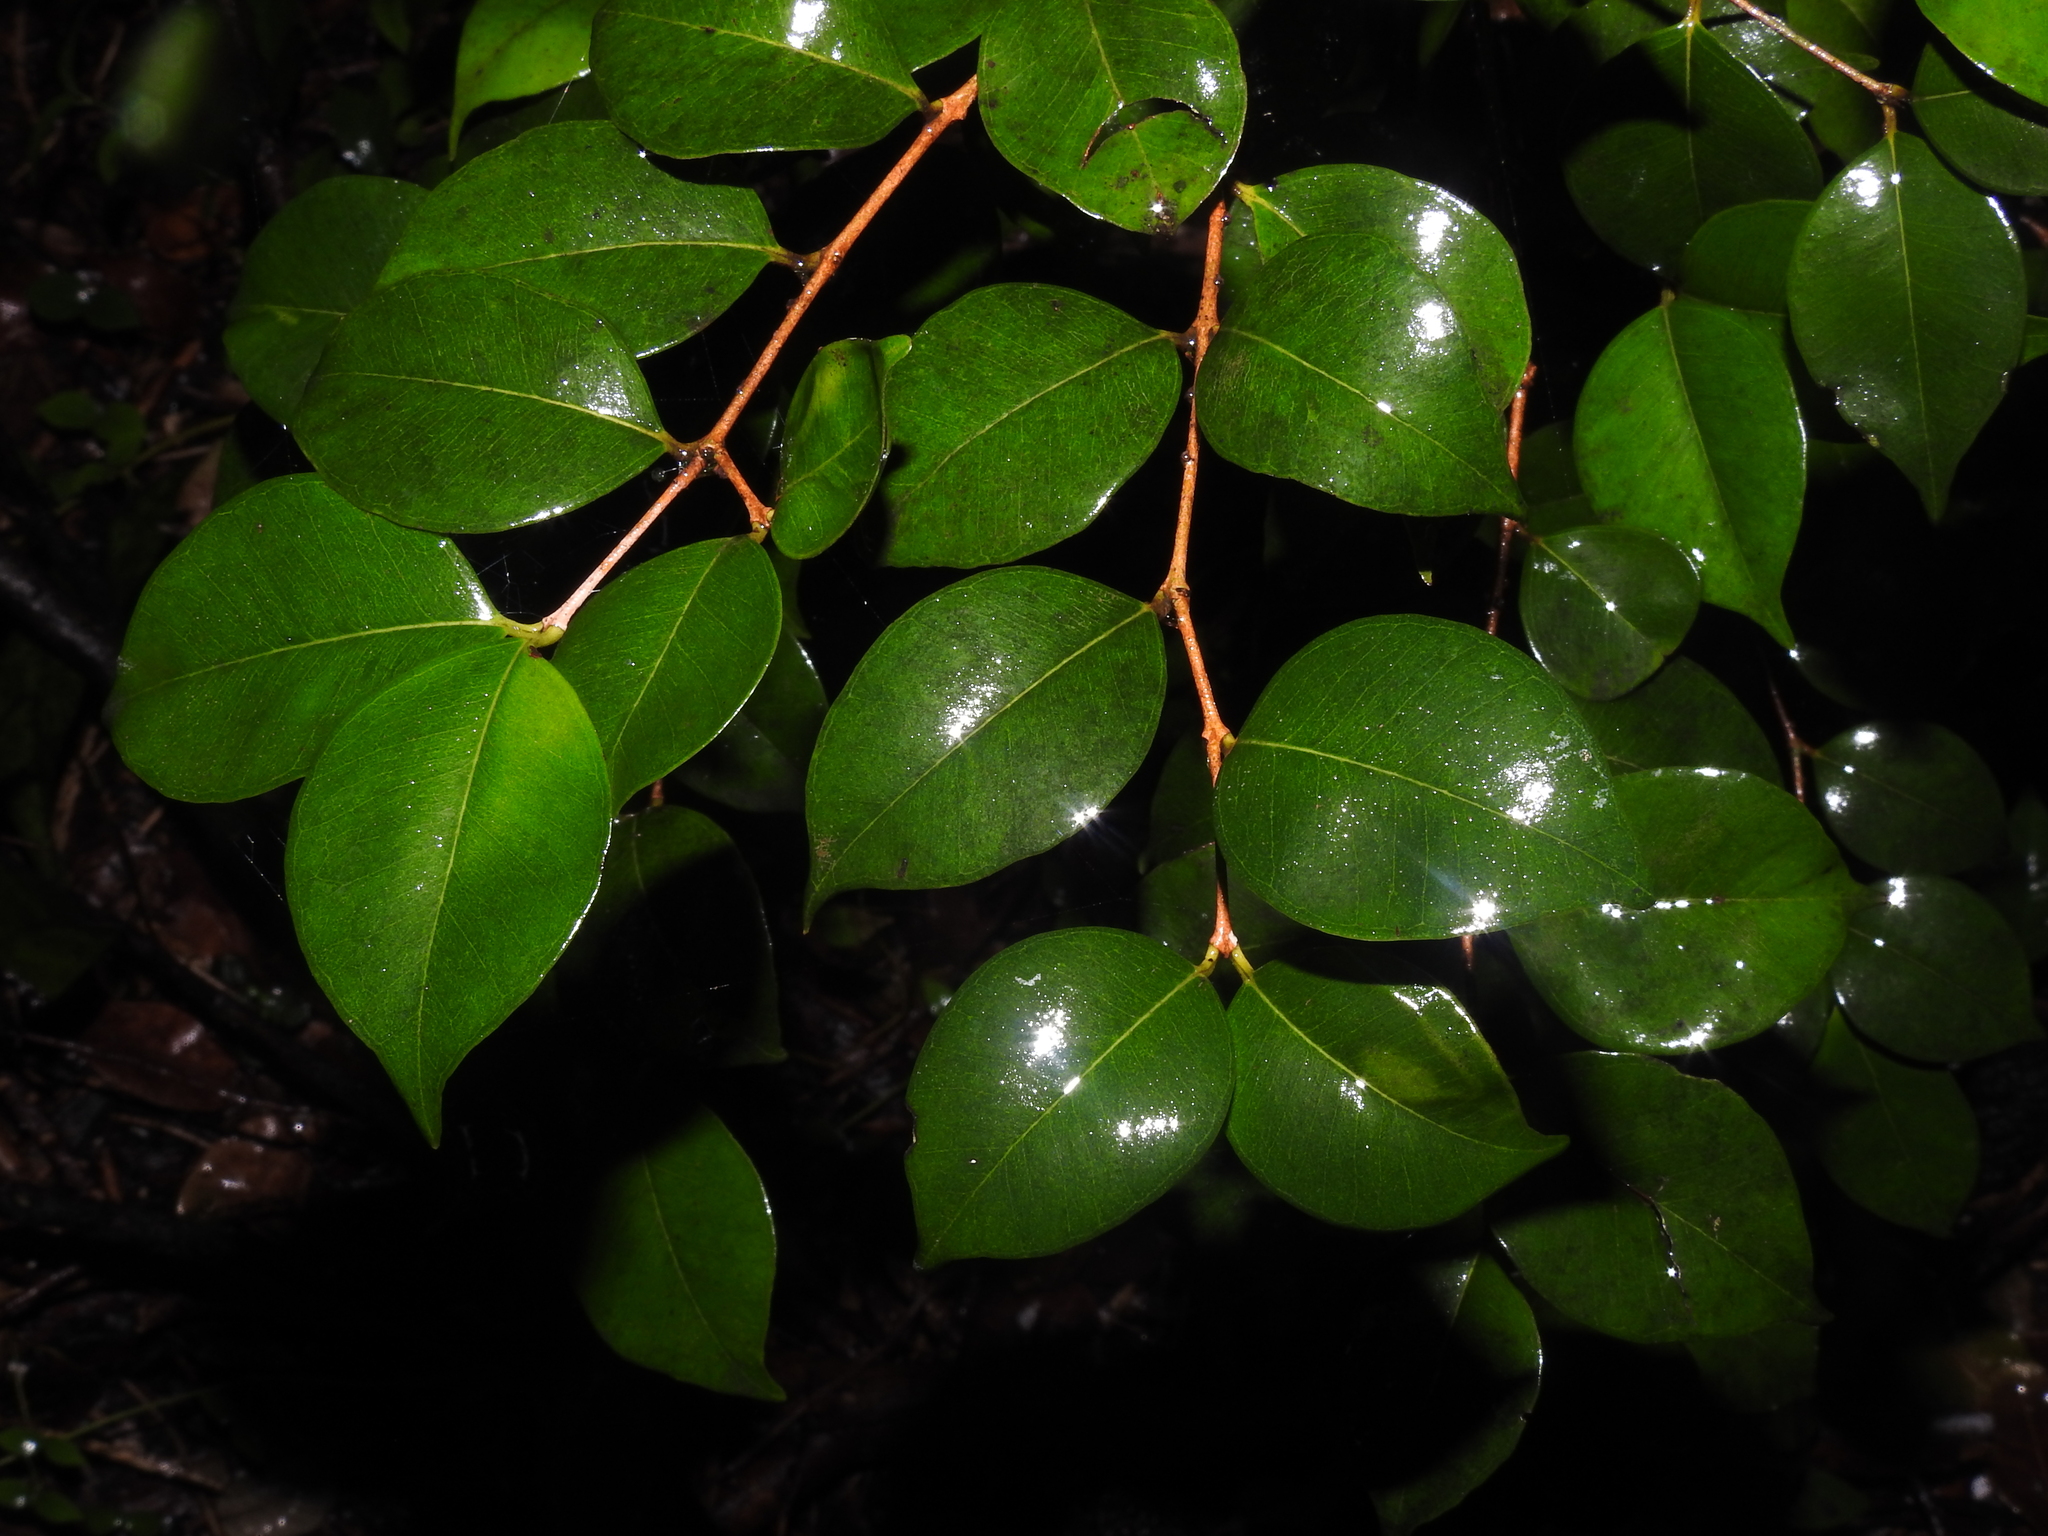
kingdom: Plantae
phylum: Tracheophyta
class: Magnoliopsida
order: Myrtales
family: Myrtaceae
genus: Eugenia
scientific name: Eugenia confusa
